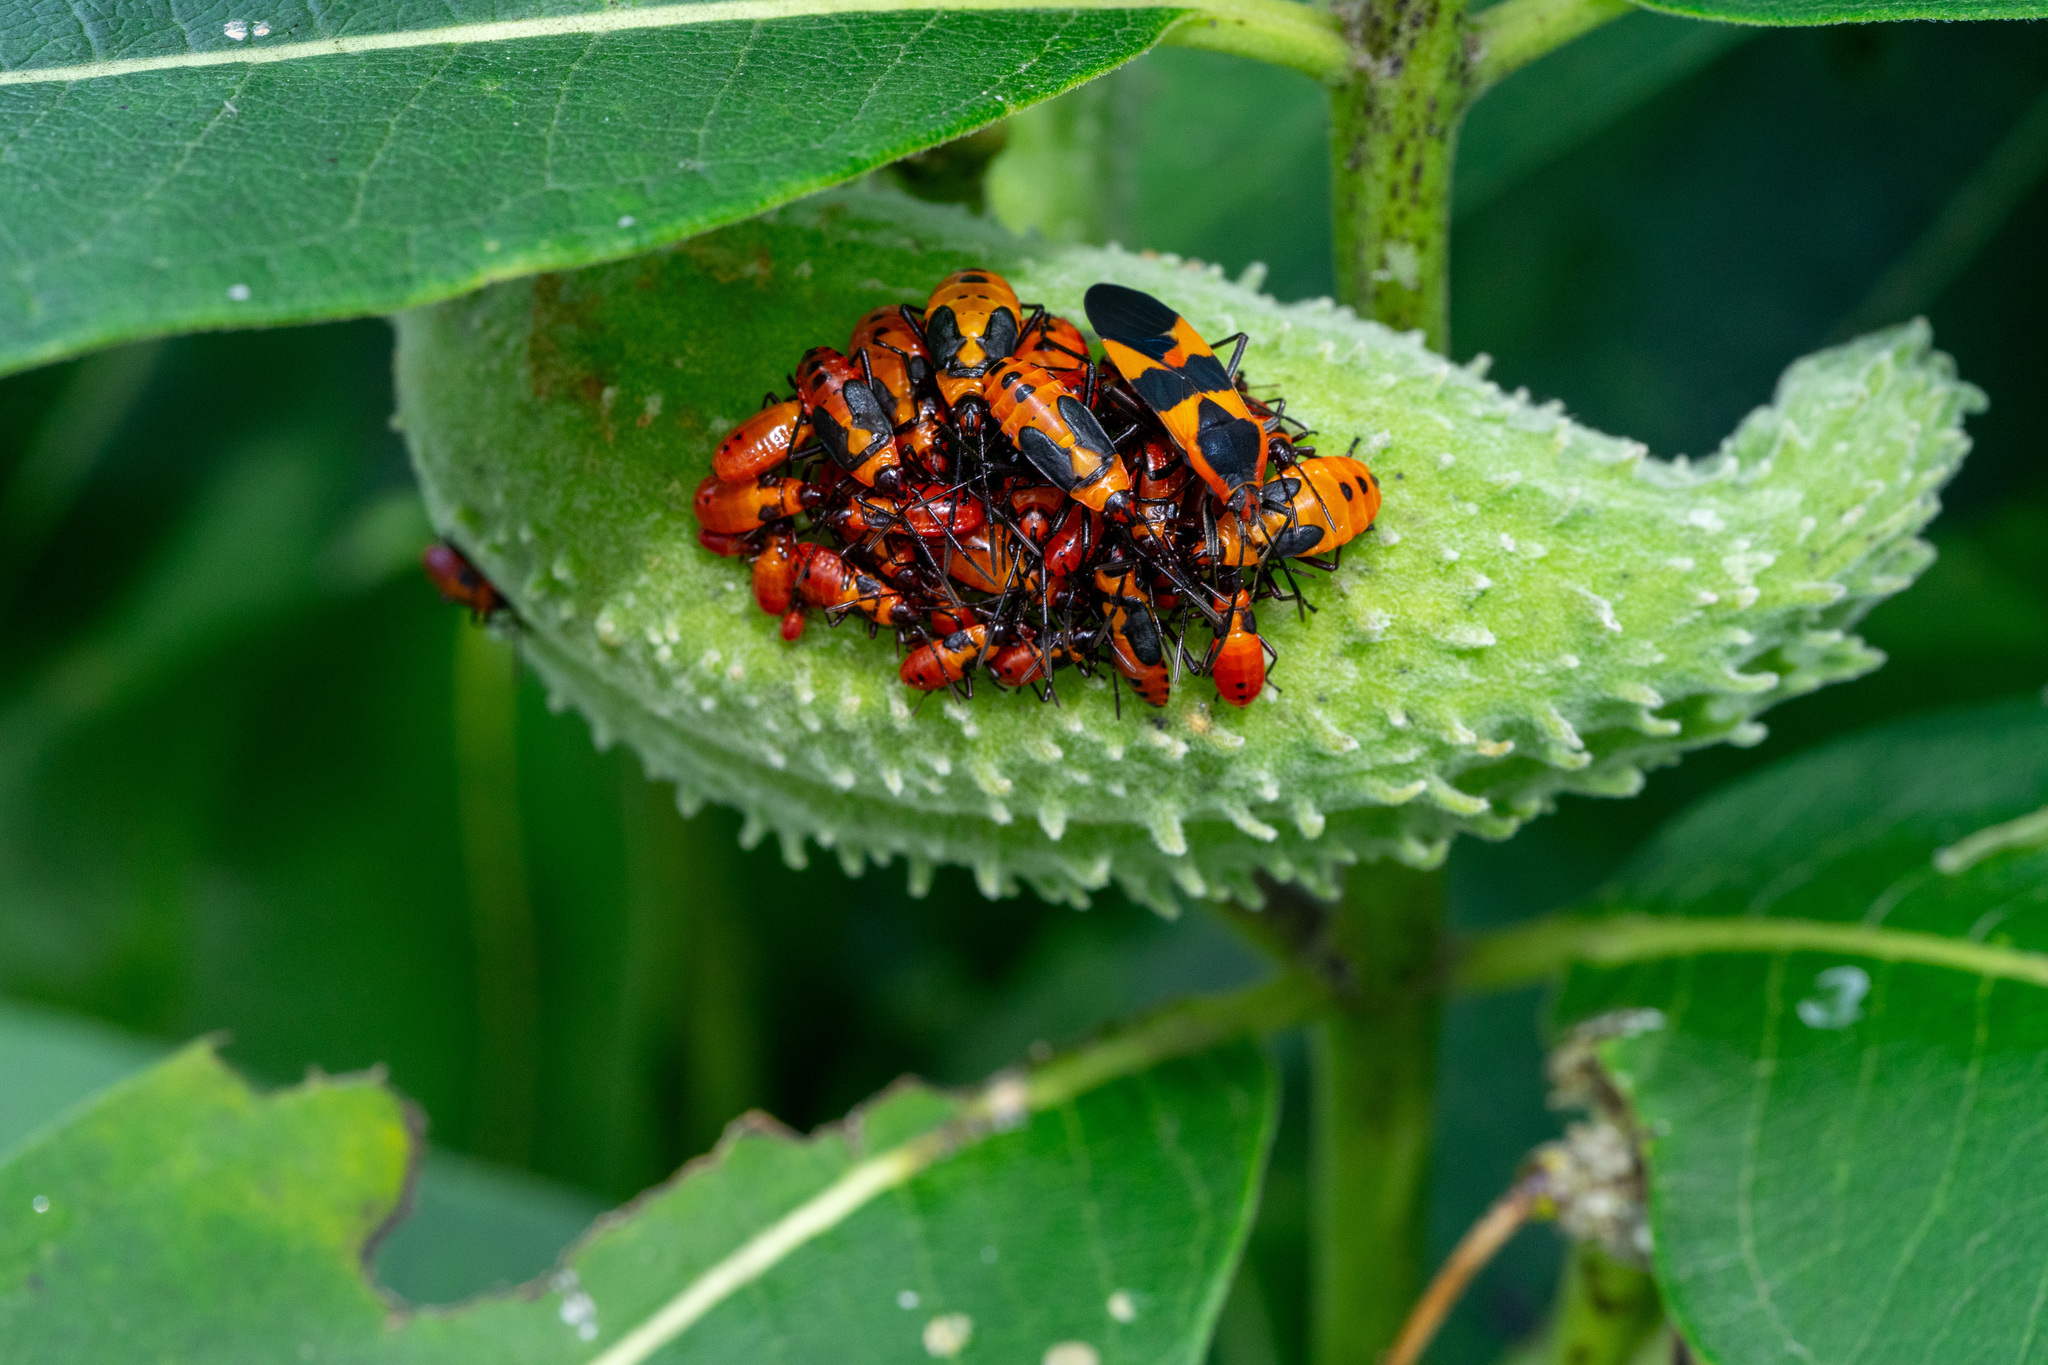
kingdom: Animalia
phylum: Arthropoda
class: Insecta
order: Hemiptera
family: Lygaeidae
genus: Oncopeltus
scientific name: Oncopeltus fasciatus
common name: Large milkweed bug
